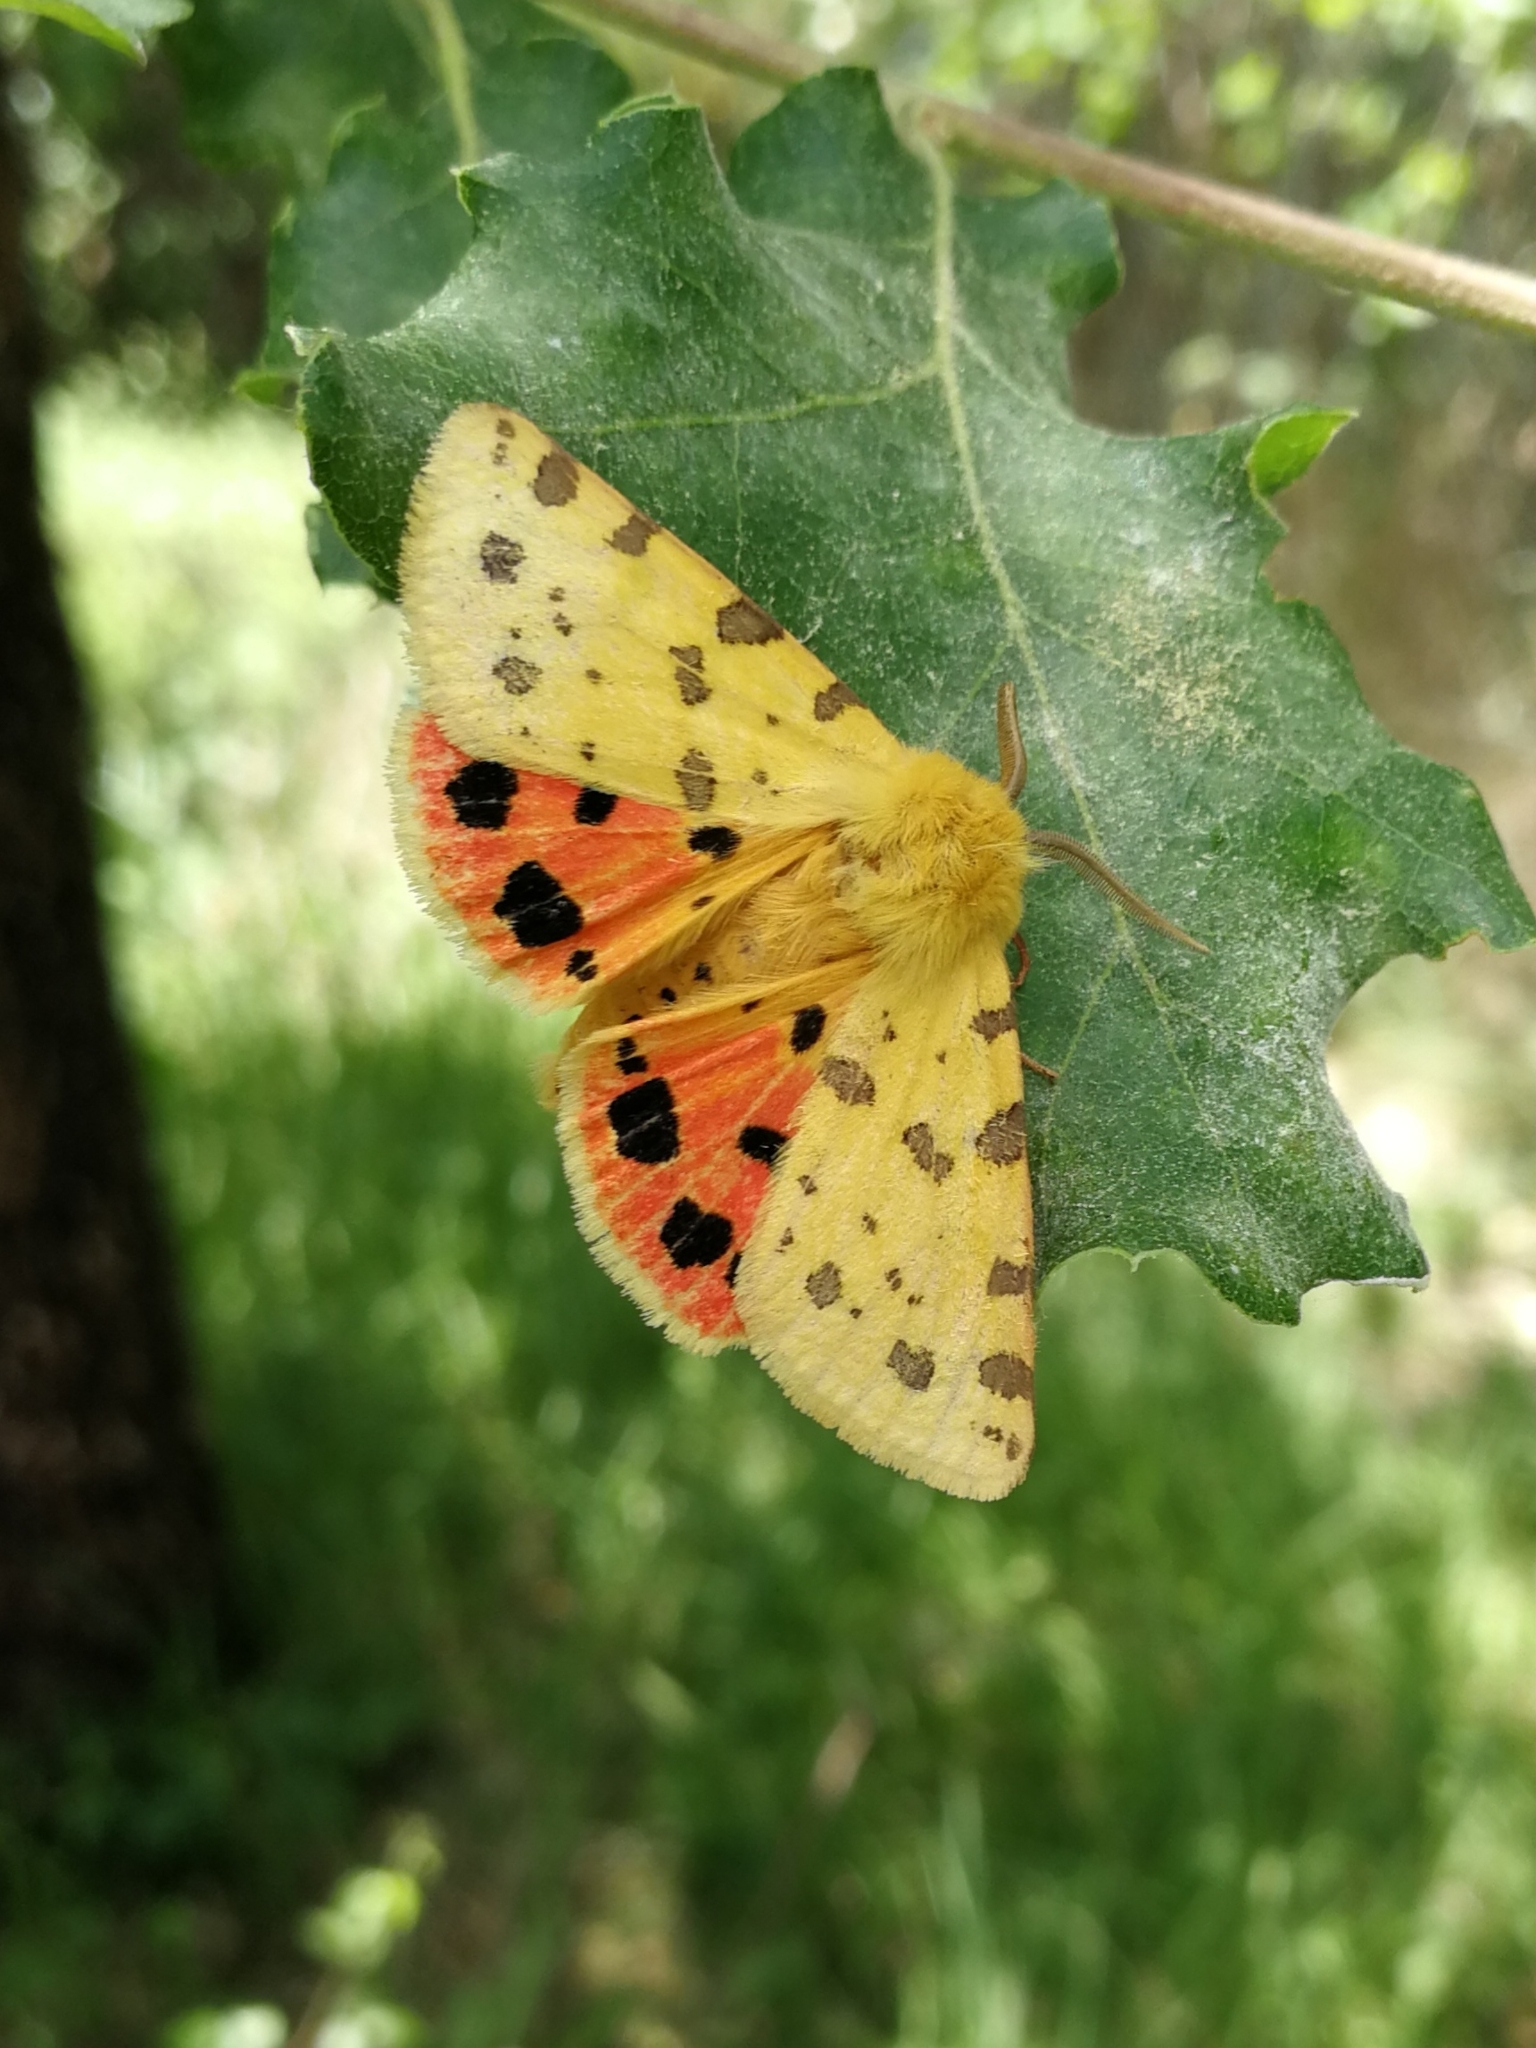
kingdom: Animalia
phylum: Arthropoda
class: Insecta
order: Lepidoptera
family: Erebidae
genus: Rhyparia
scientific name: Rhyparia purpurata
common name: Purple tiger
